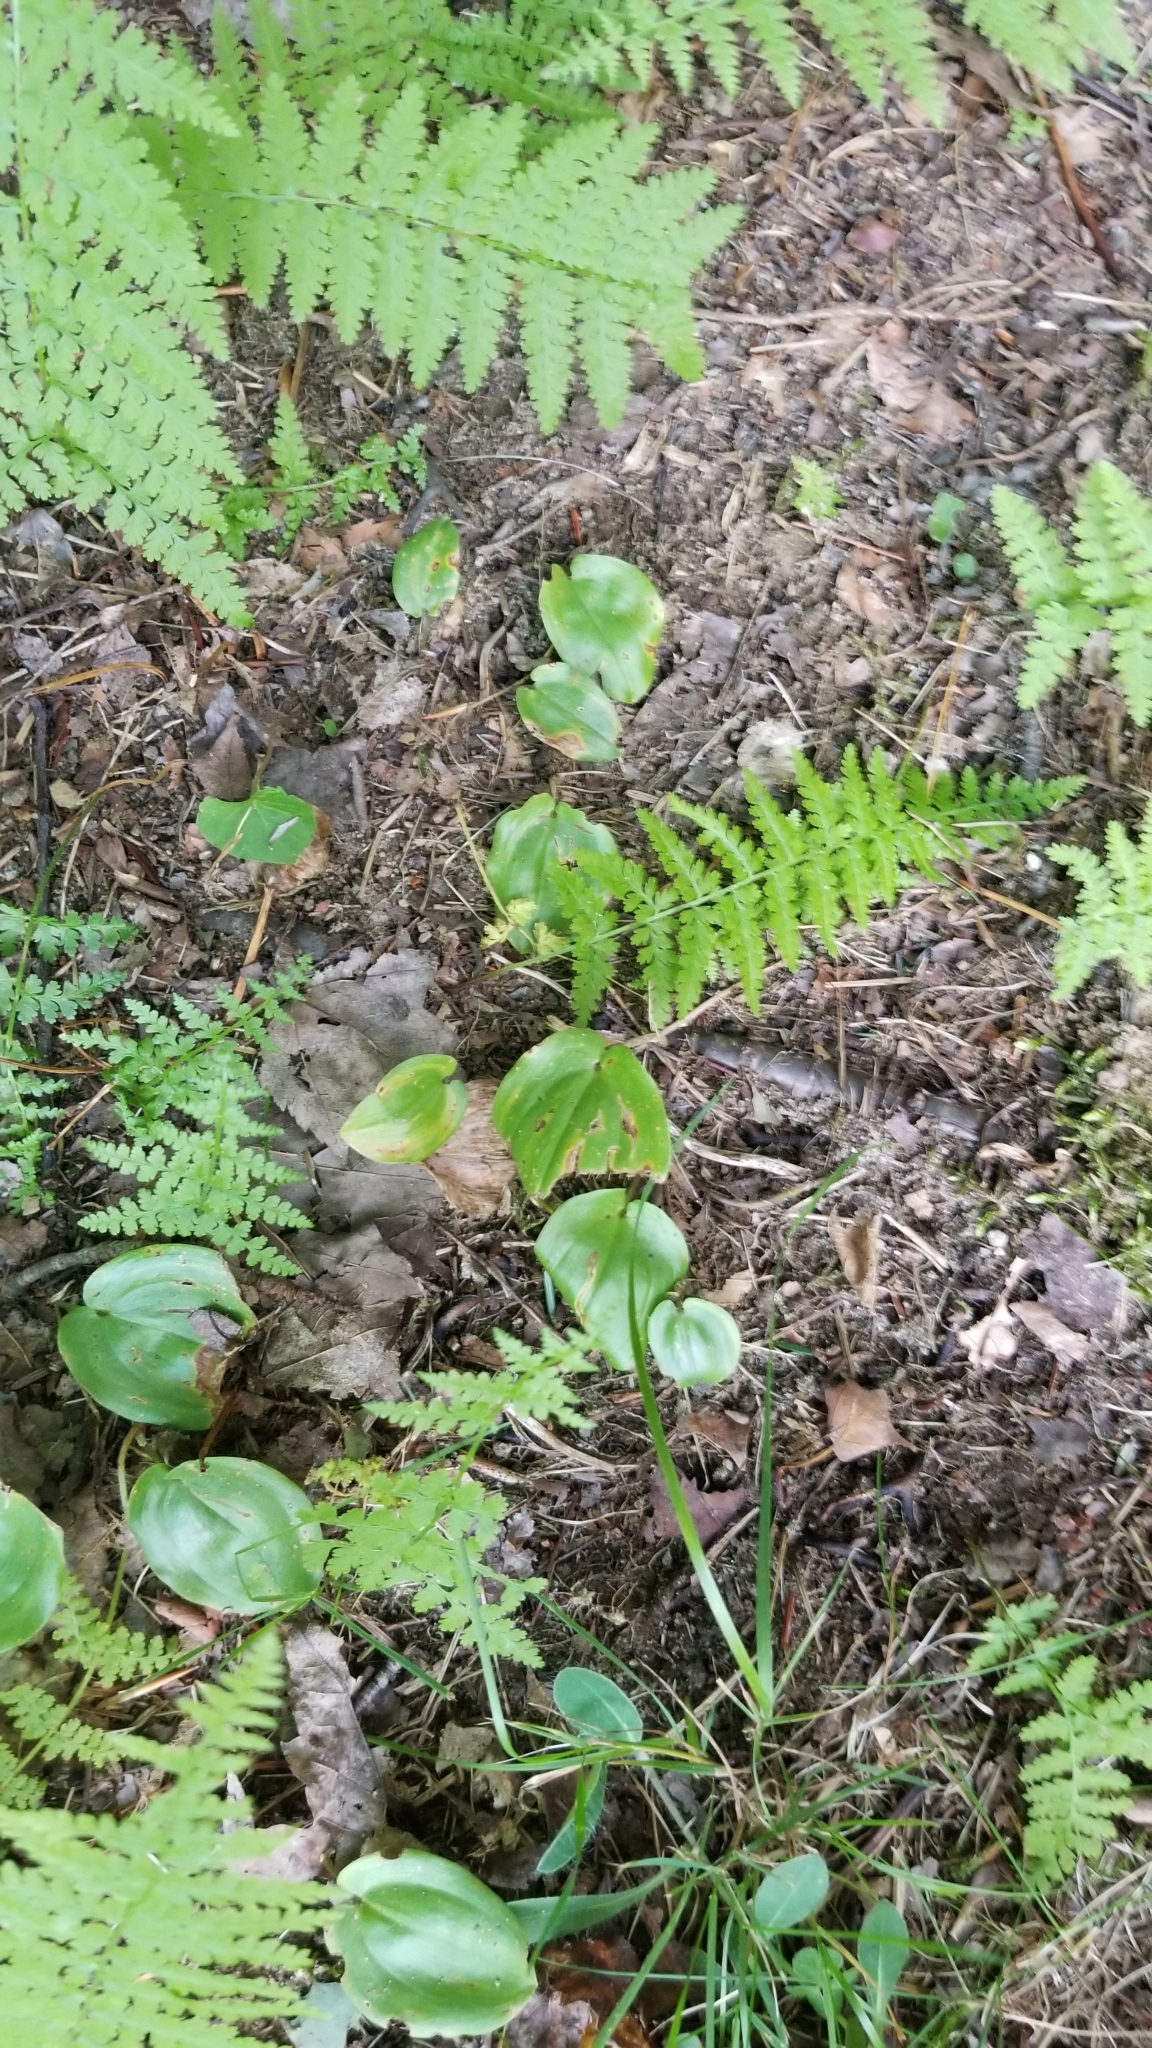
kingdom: Plantae
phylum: Tracheophyta
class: Liliopsida
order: Asparagales
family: Asparagaceae
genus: Maianthemum
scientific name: Maianthemum canadense
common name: False lily-of-the-valley
